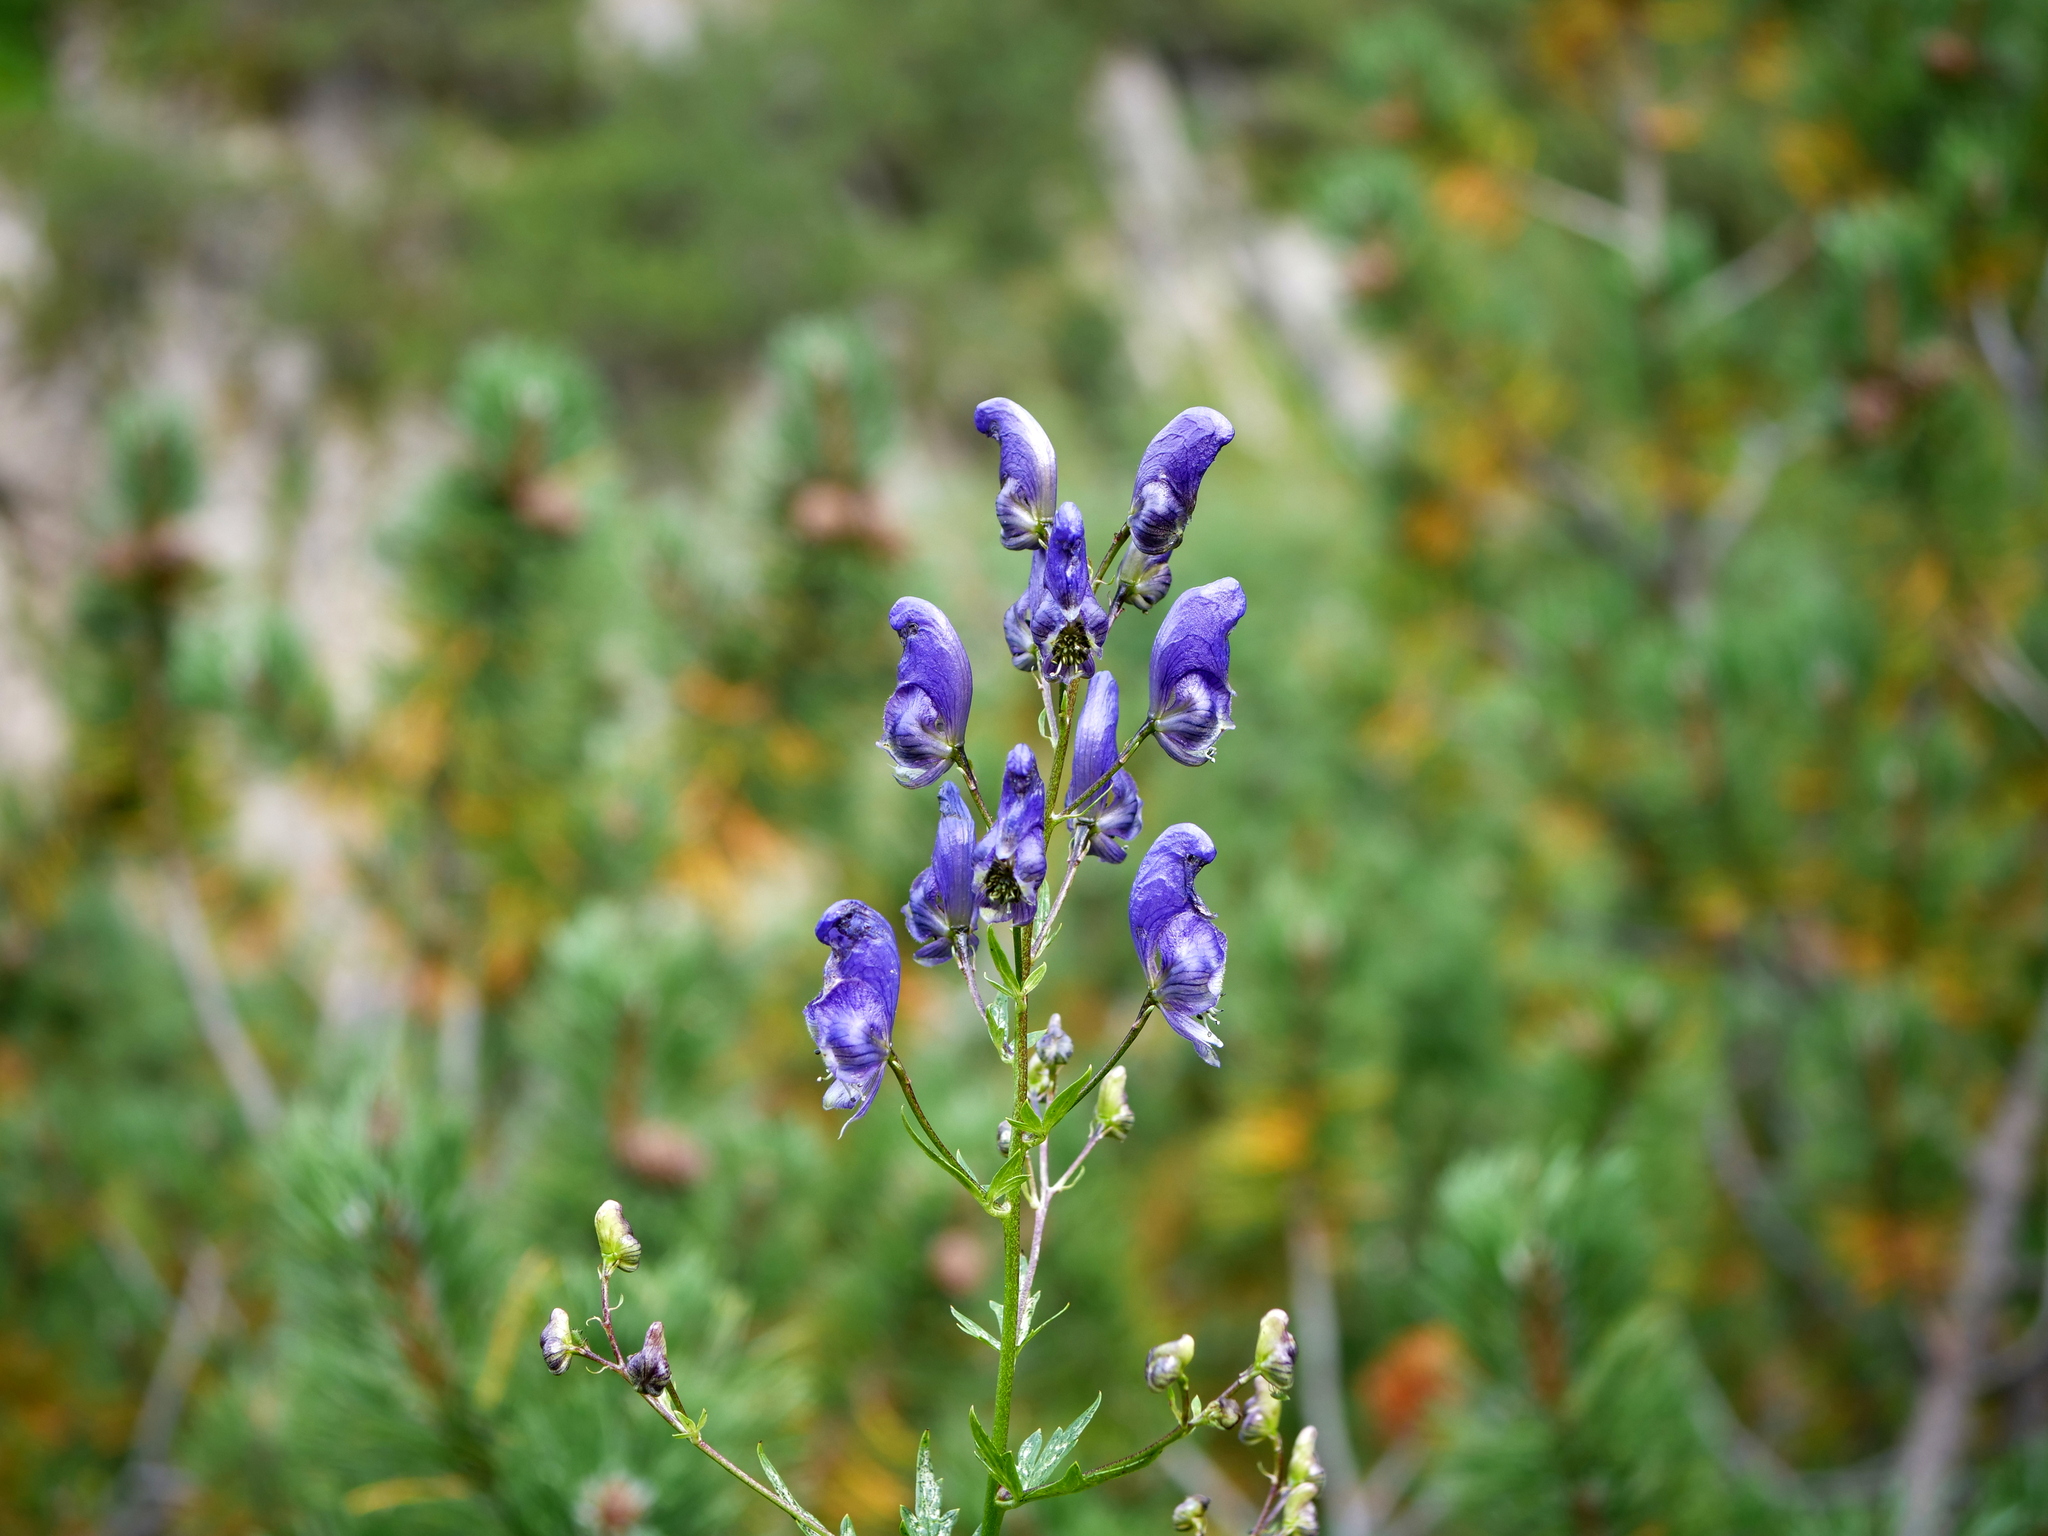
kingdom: Plantae
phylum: Tracheophyta
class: Magnoliopsida
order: Ranunculales
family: Ranunculaceae
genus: Aconitum
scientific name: Aconitum variegatum
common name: Manchurian monkshood
